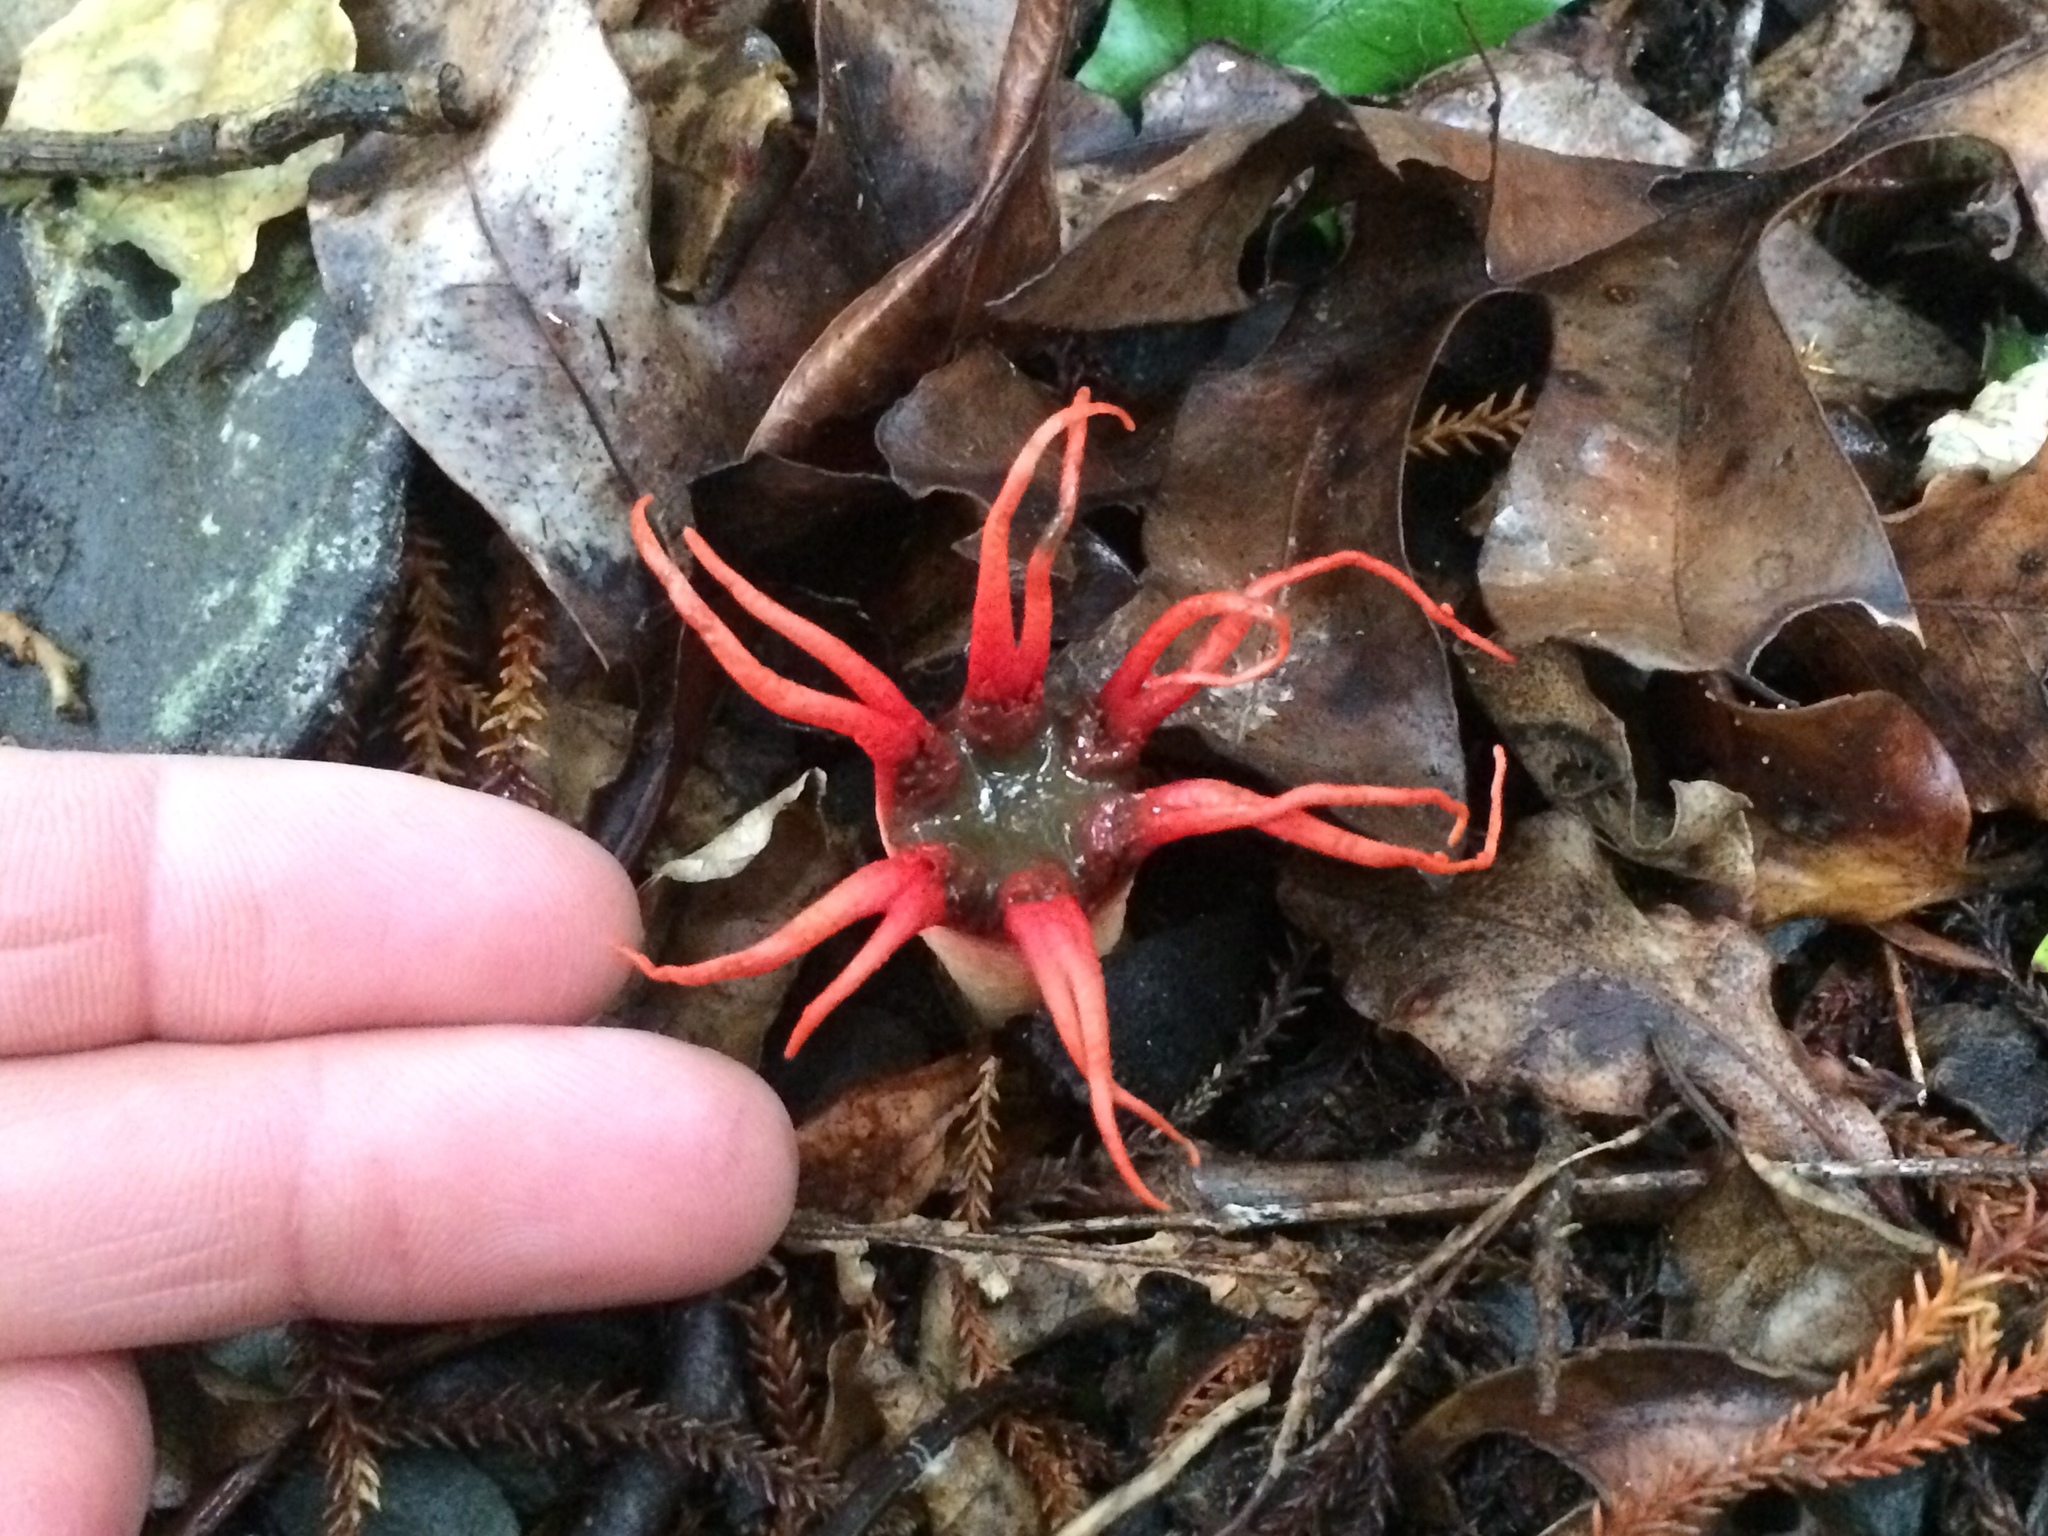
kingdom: Fungi
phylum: Basidiomycota
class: Agaricomycetes
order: Phallales
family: Phallaceae
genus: Aseroe
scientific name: Aseroe rubra
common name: Starfish fungus
